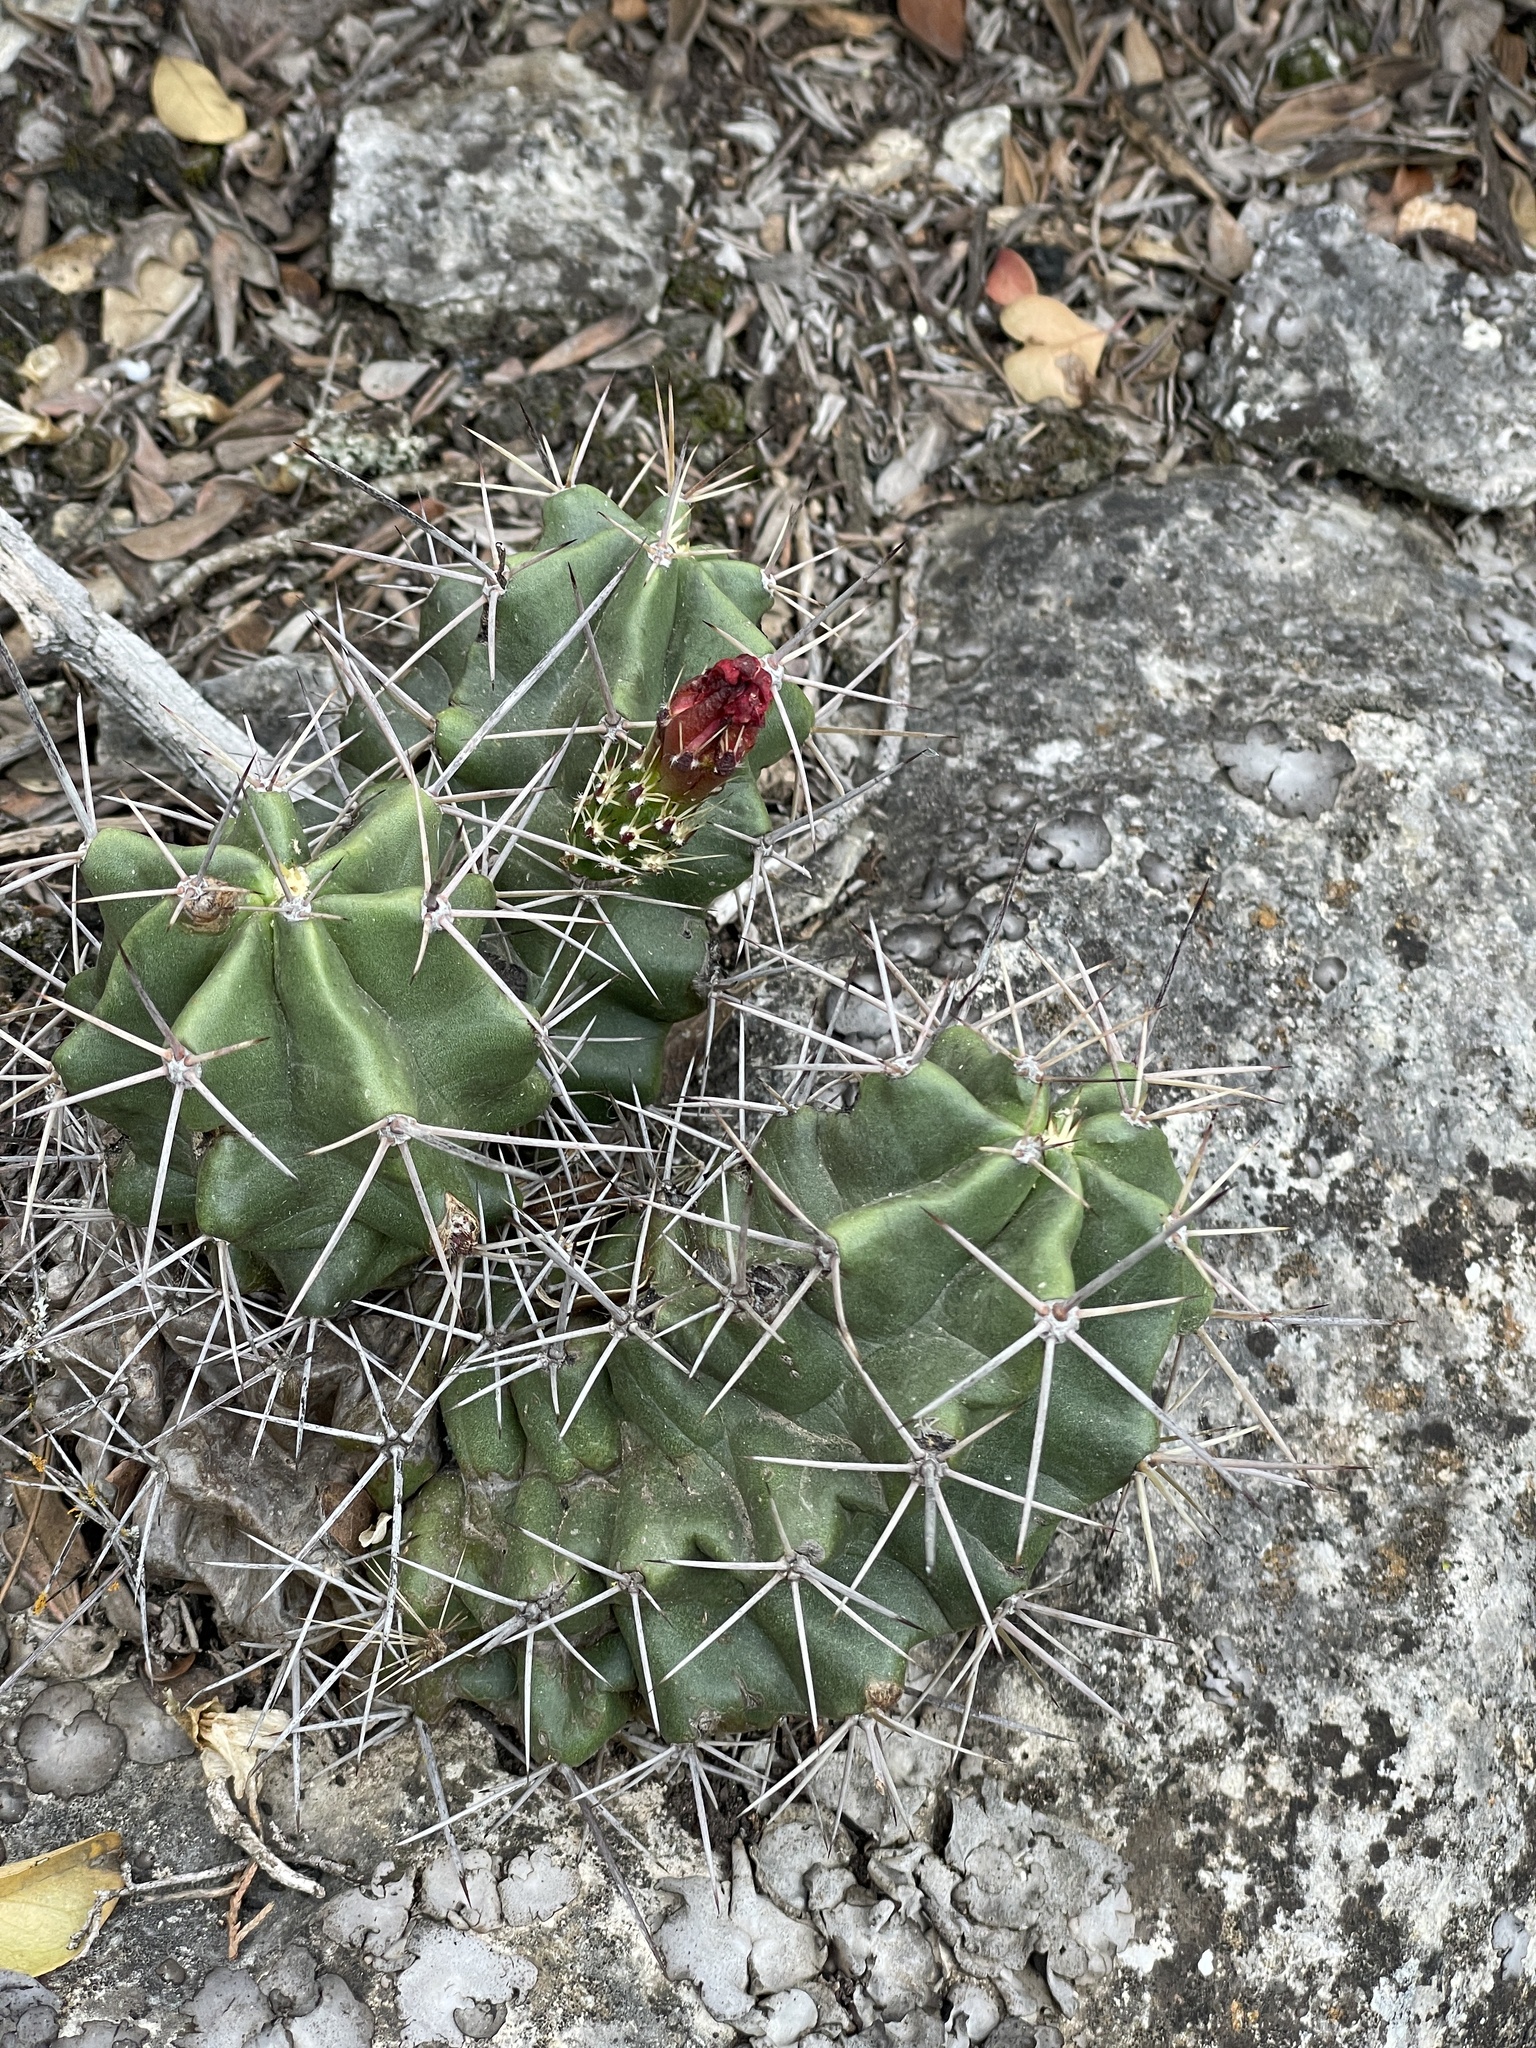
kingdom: Plantae
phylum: Tracheophyta
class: Magnoliopsida
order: Caryophyllales
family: Cactaceae
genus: Echinocereus
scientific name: Echinocereus coccineus
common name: Scarlet hedgehog cactus
